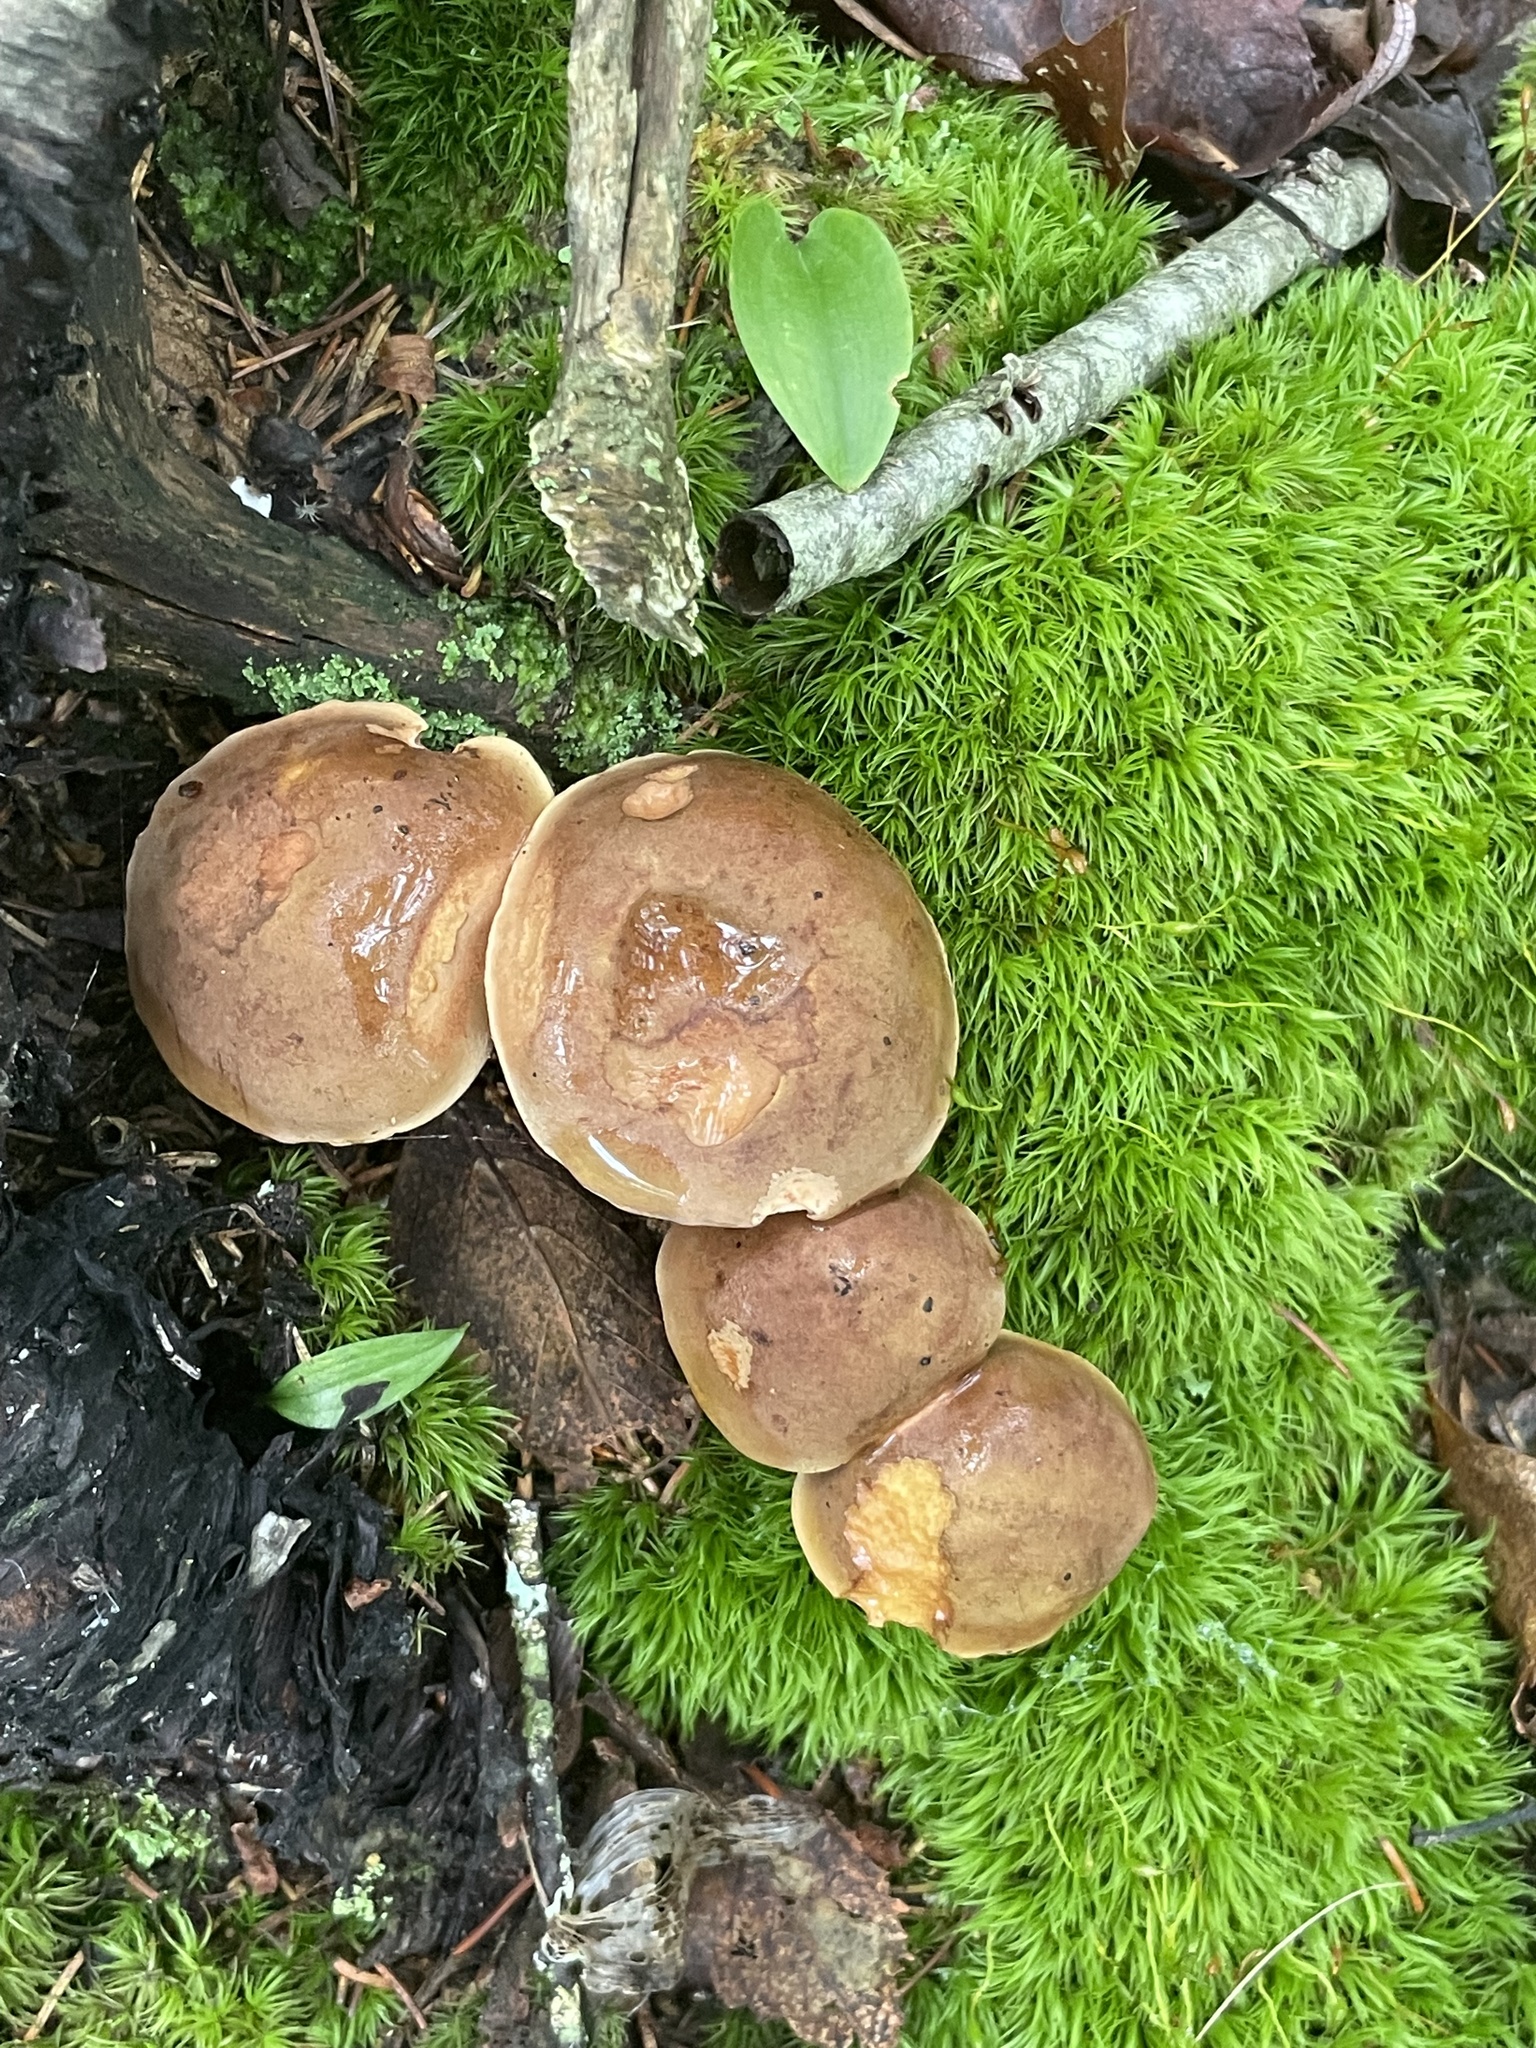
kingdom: Fungi
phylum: Basidiomycota
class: Agaricomycetes
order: Boletales
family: Boletaceae
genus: Hemileccinum
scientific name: Hemileccinum subglabripes
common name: Smoothish-stemmed bolete
